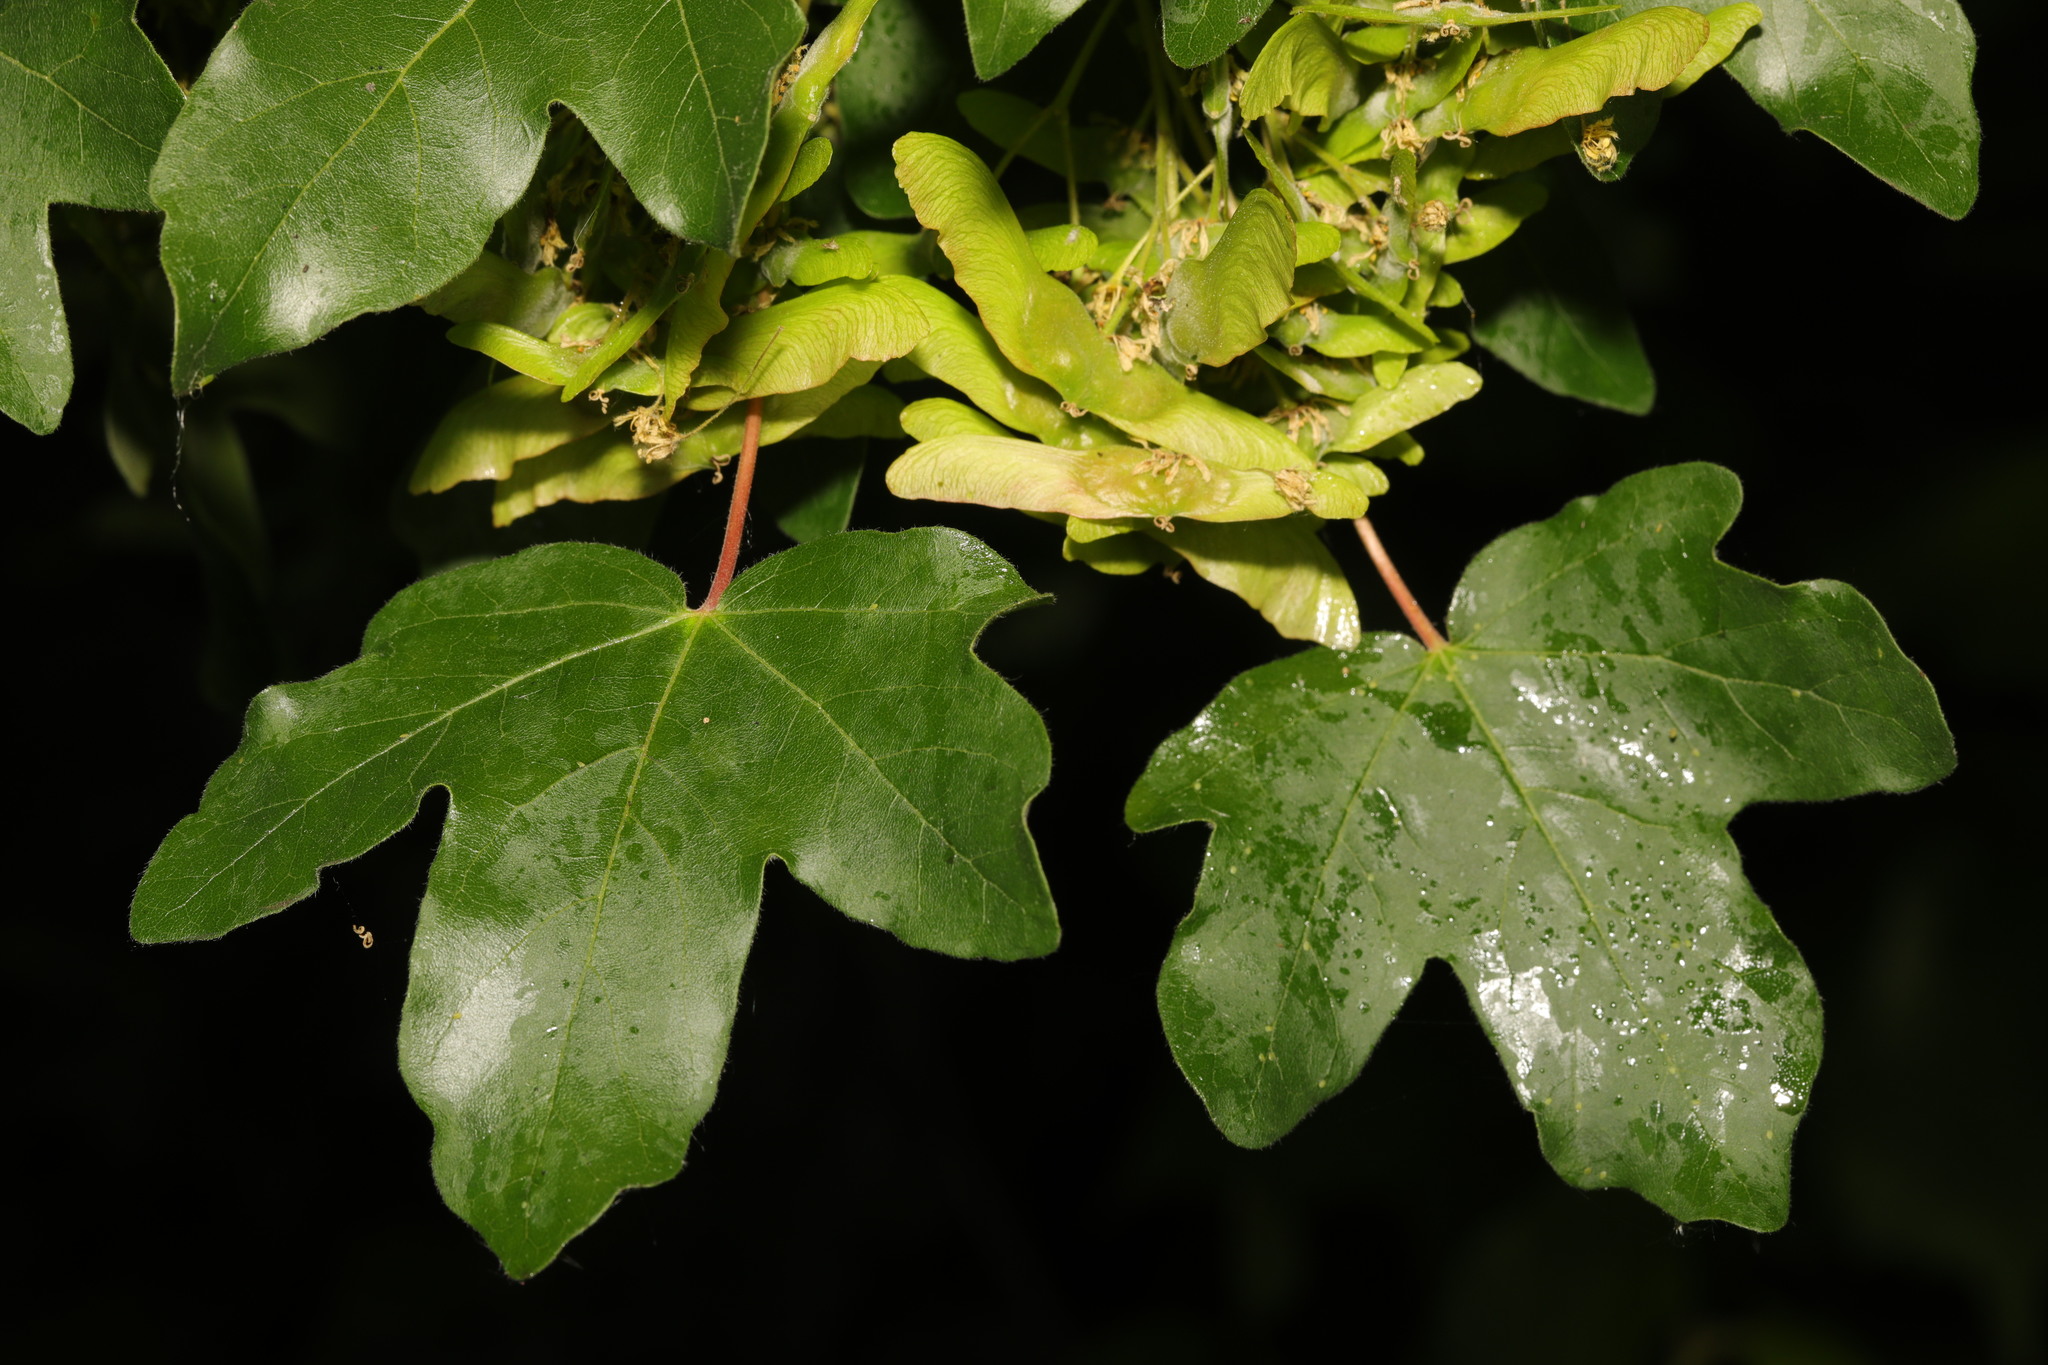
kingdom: Plantae
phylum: Tracheophyta
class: Magnoliopsida
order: Sapindales
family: Sapindaceae
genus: Acer
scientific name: Acer campestre
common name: Field maple
